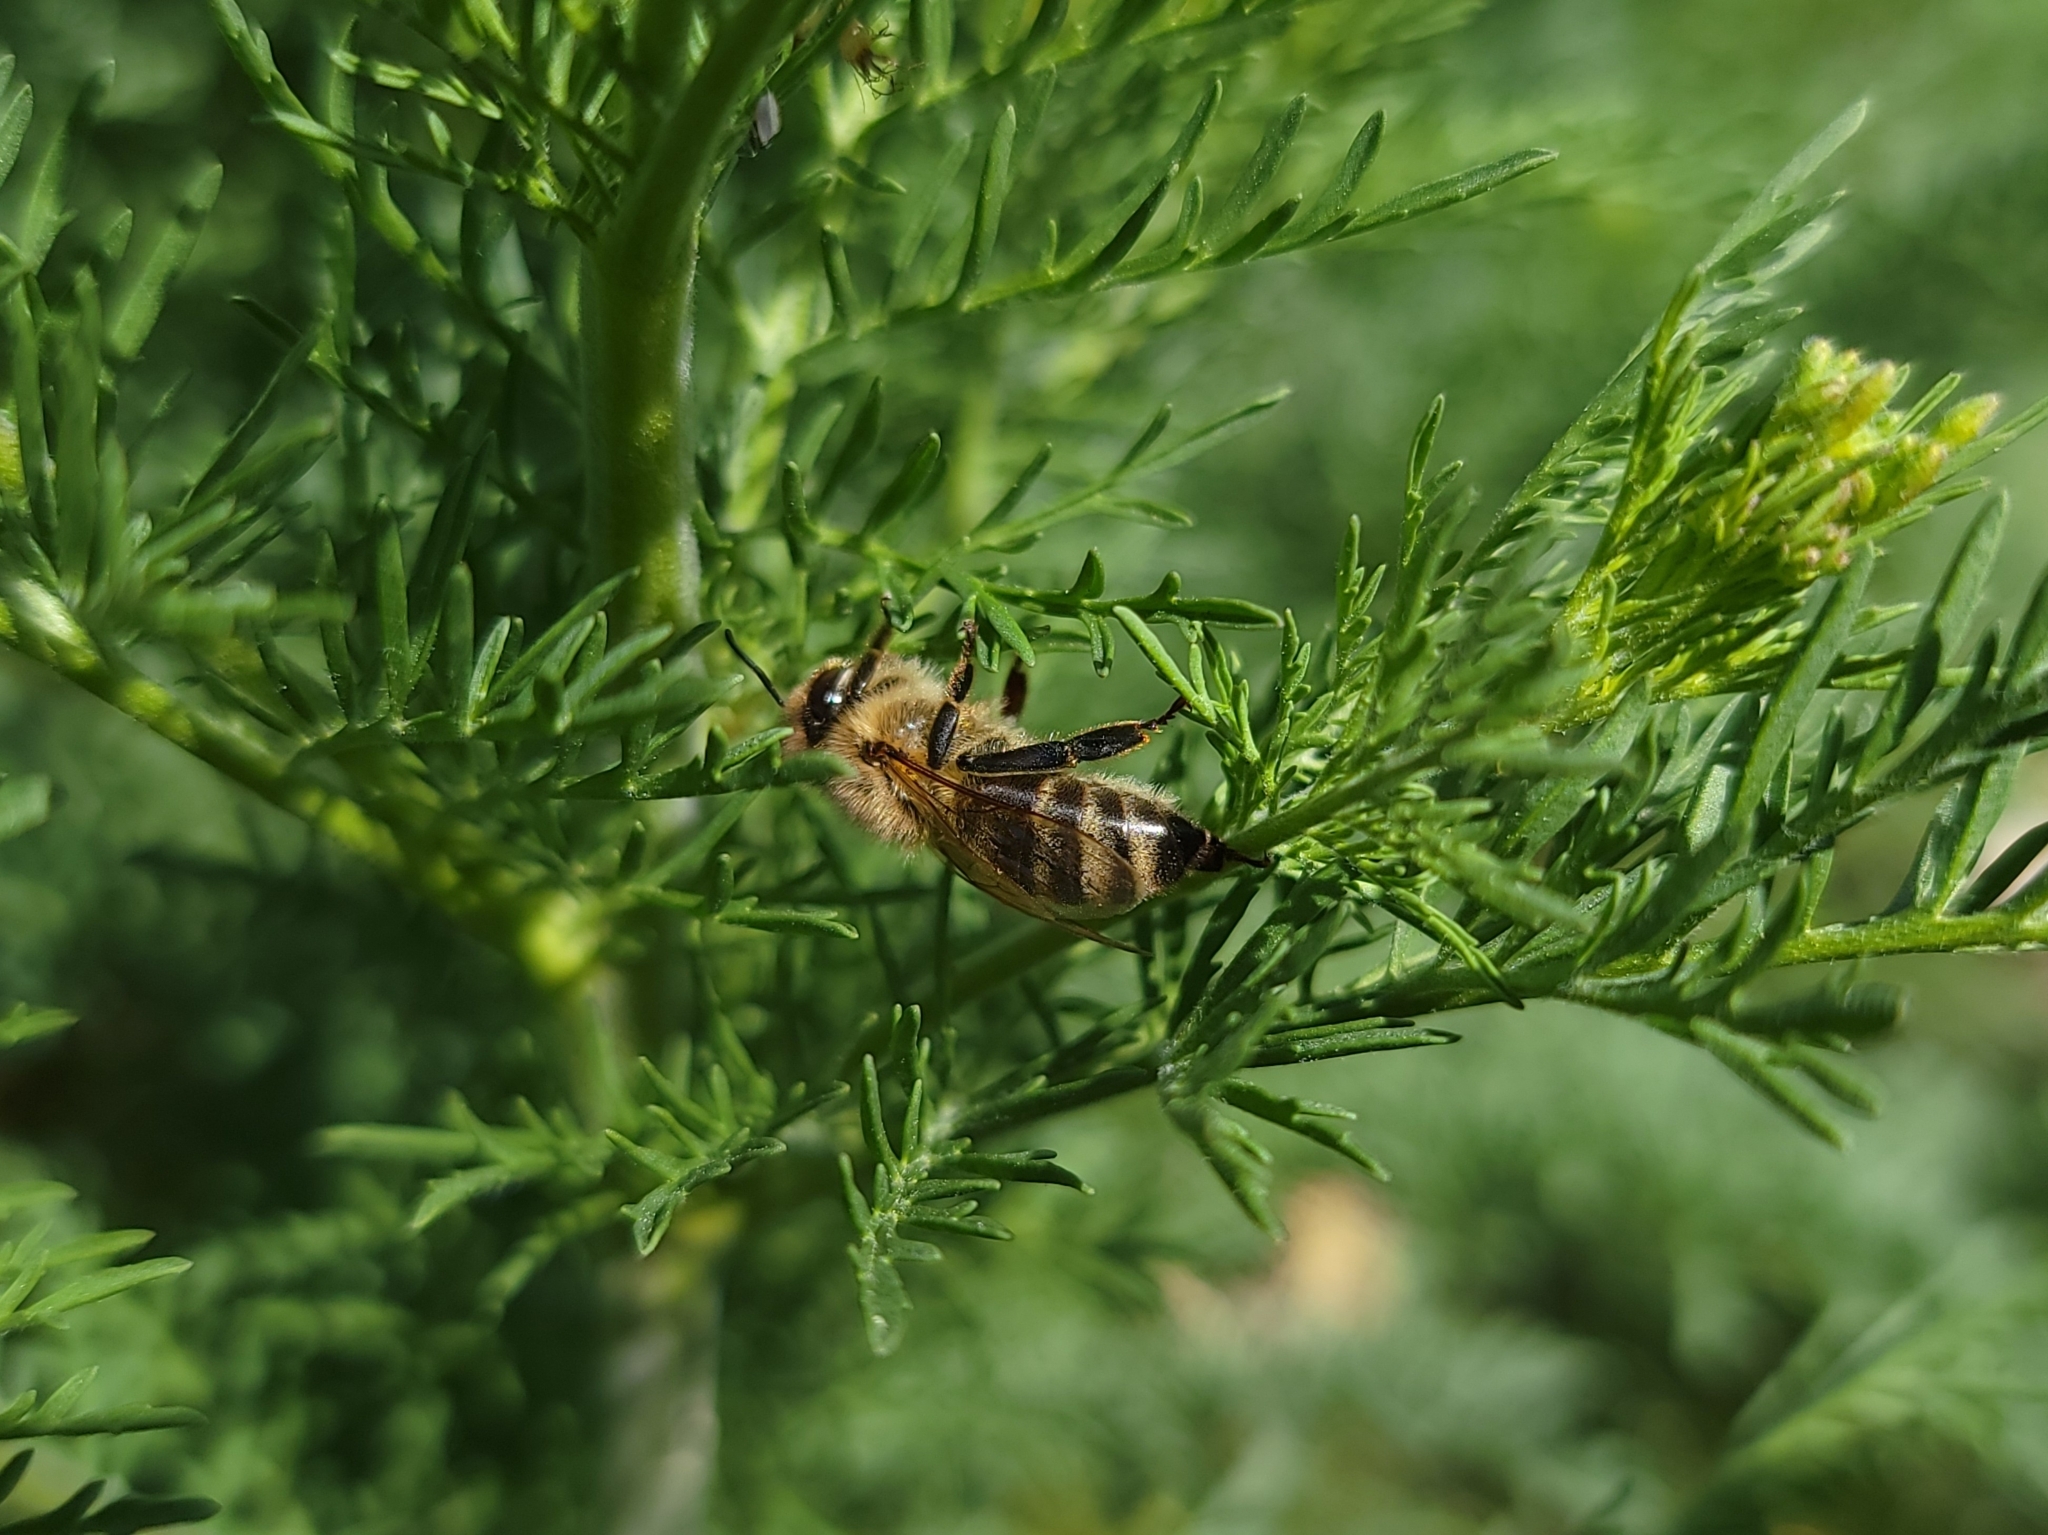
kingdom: Animalia
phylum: Arthropoda
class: Insecta
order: Hymenoptera
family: Apidae
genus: Apis
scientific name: Apis mellifera
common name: Honey bee
